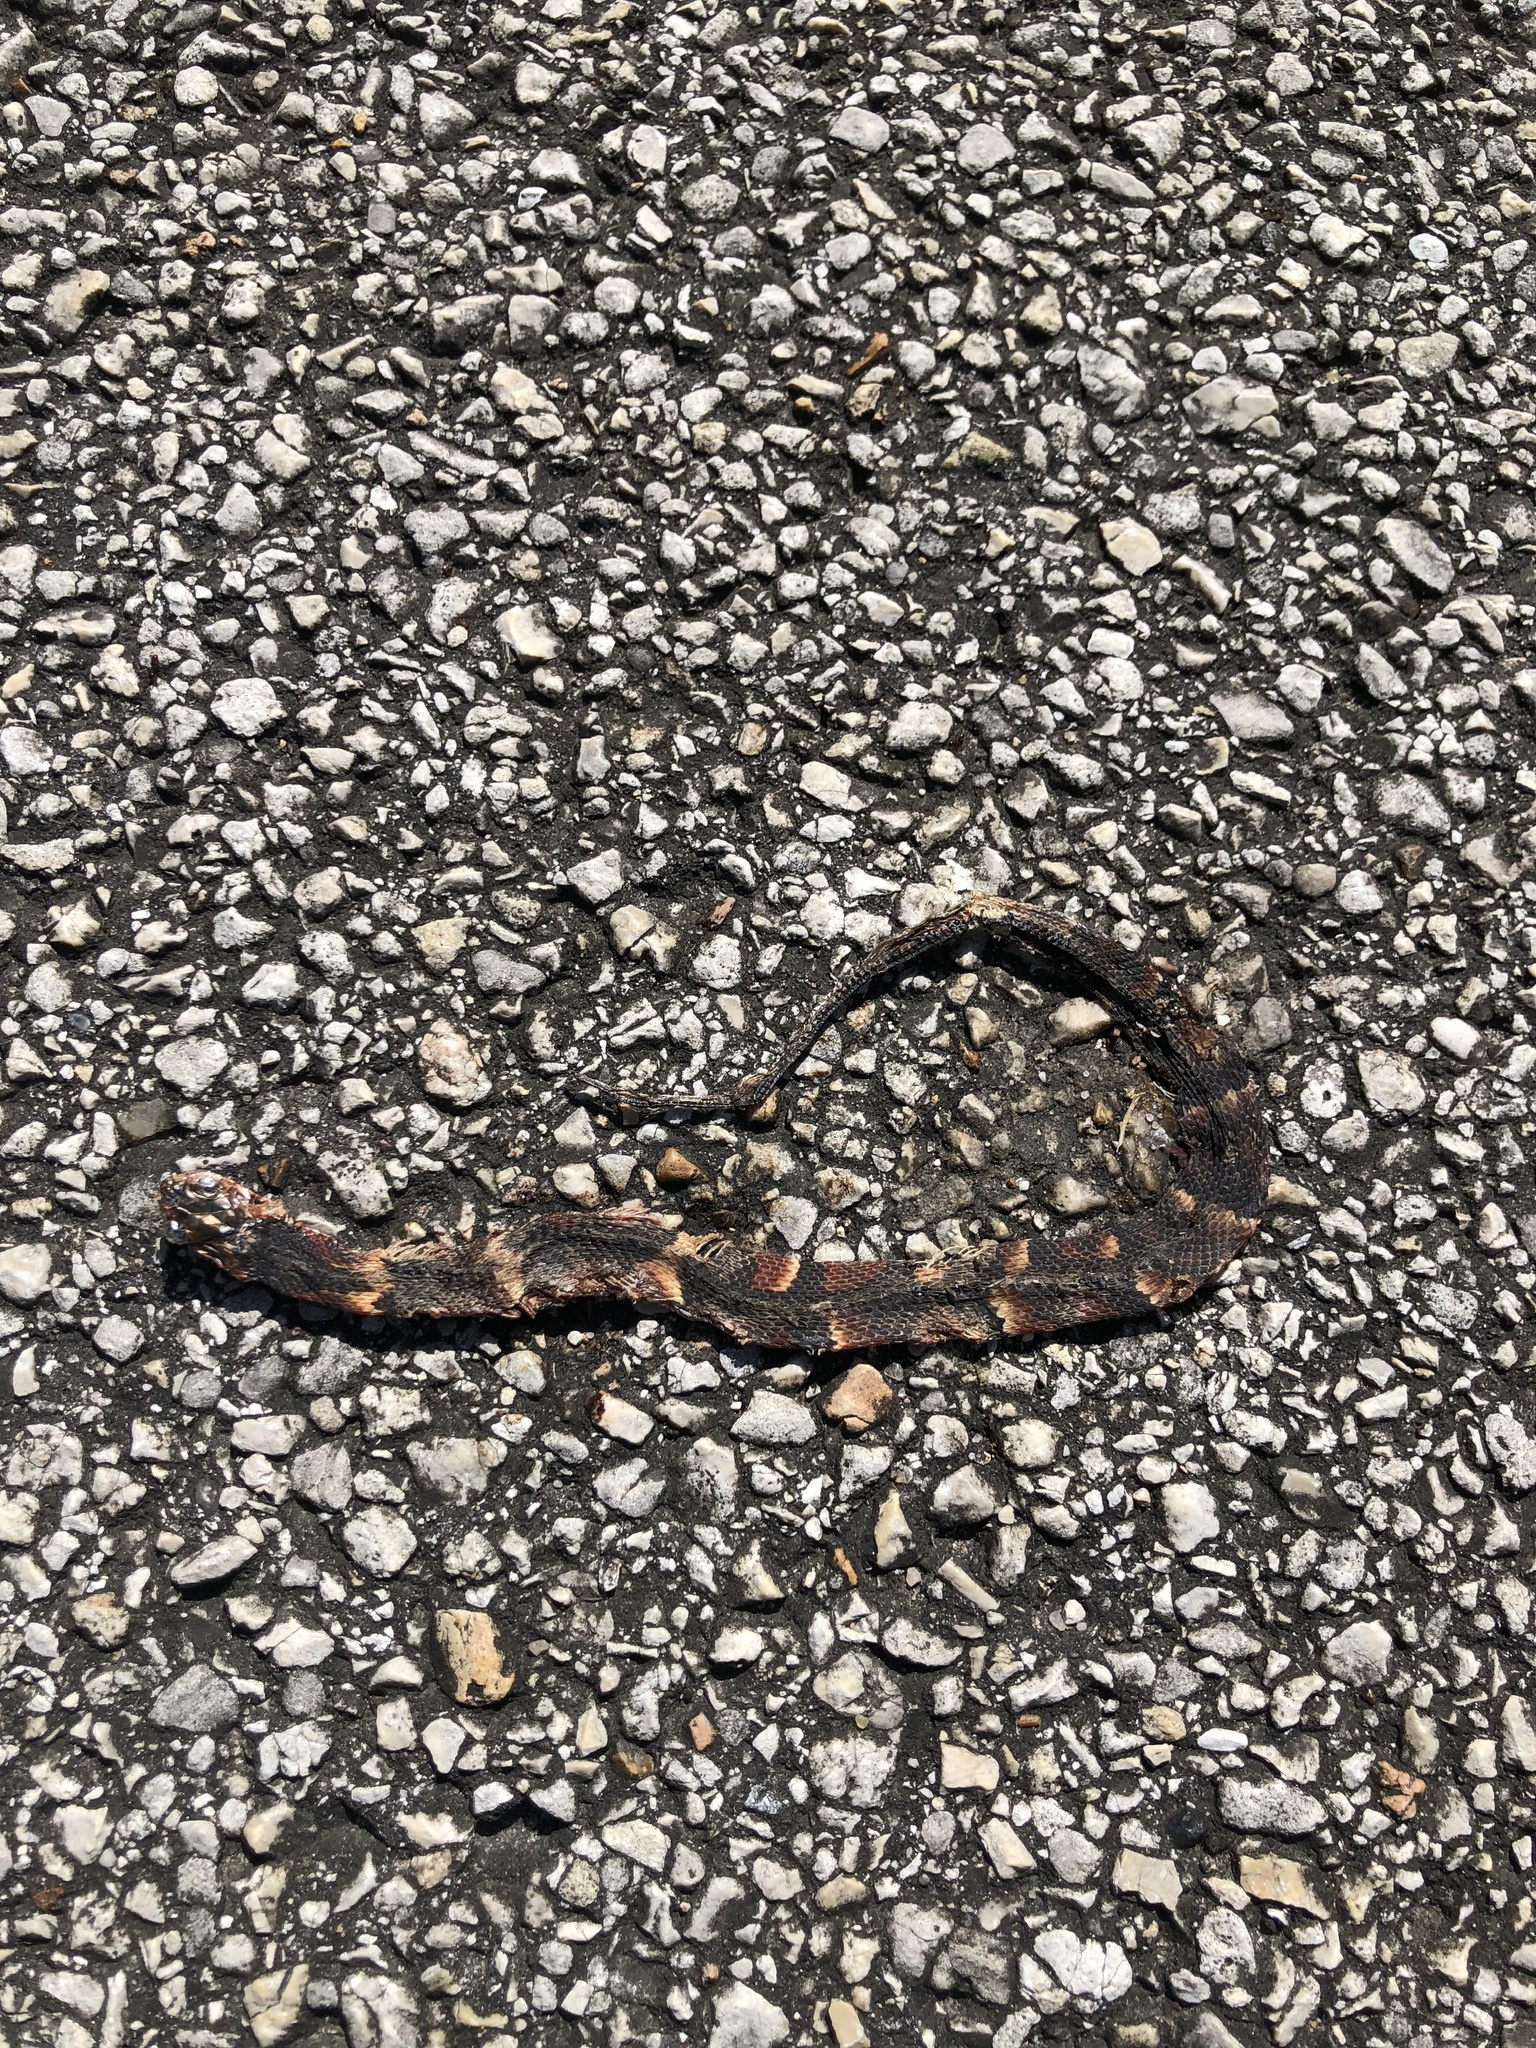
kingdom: Animalia
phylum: Chordata
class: Squamata
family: Colubridae
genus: Nerodia
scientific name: Nerodia fasciata
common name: Southern water snake
